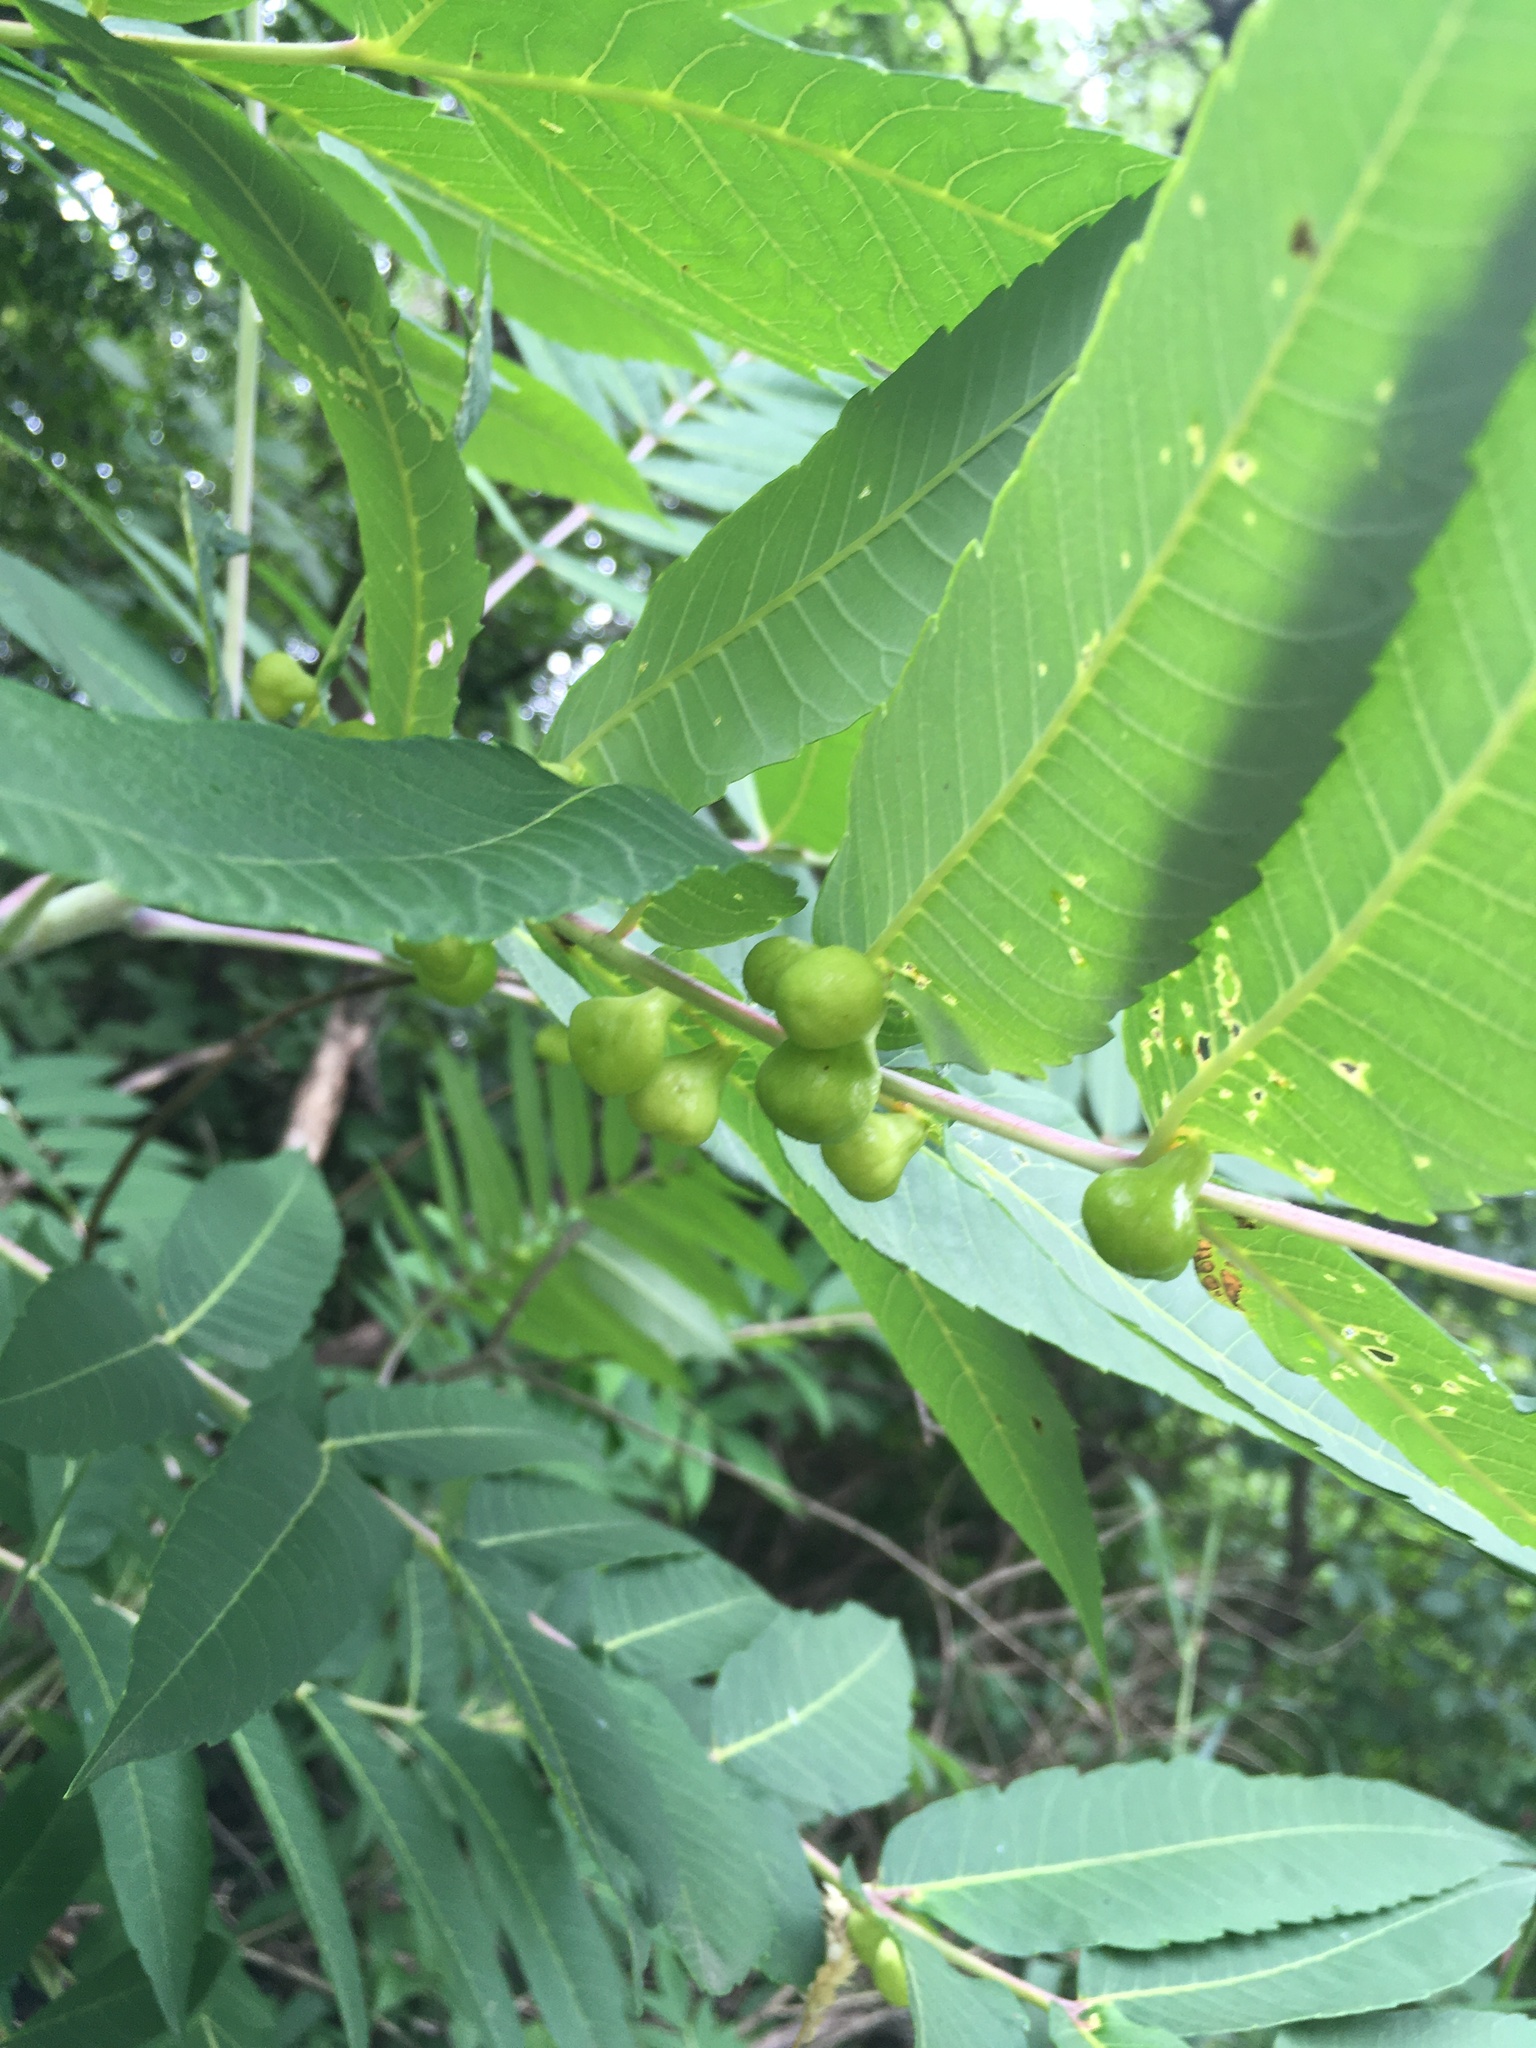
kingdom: Animalia
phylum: Arthropoda
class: Insecta
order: Hemiptera
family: Aphididae
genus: Melaphis
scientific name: Melaphis rhois
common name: Sumac gall aphid
